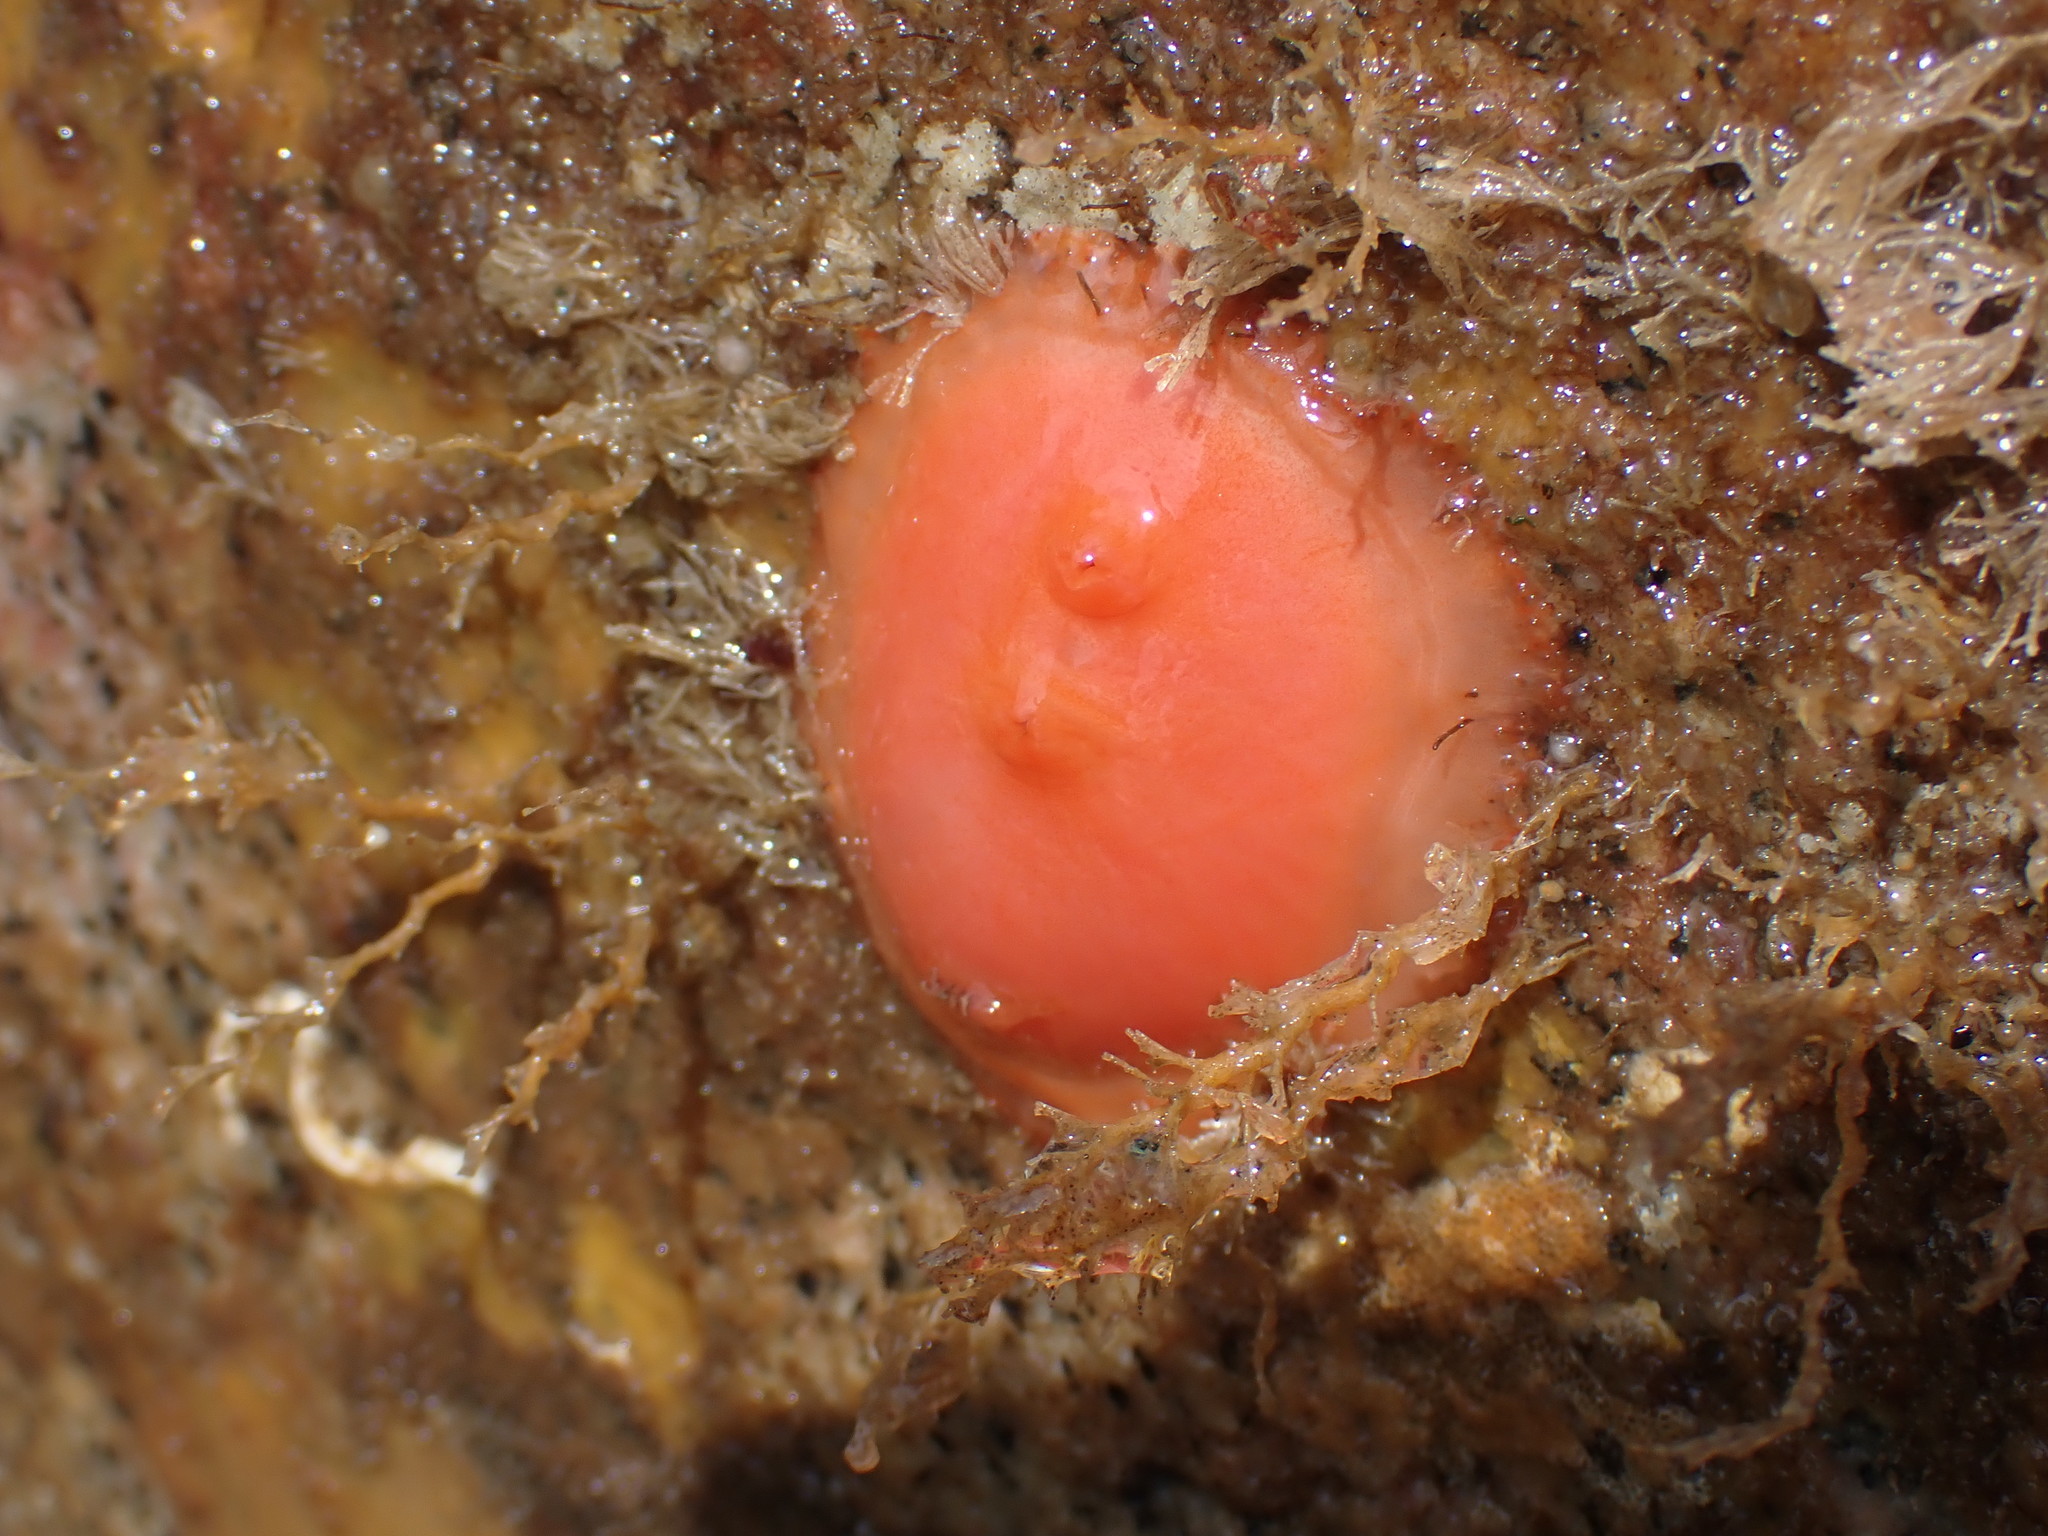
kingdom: Animalia
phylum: Chordata
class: Ascidiacea
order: Stolidobranchia
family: Styelidae
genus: Cnemidocarpa
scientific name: Cnemidocarpa finmarkiensis
